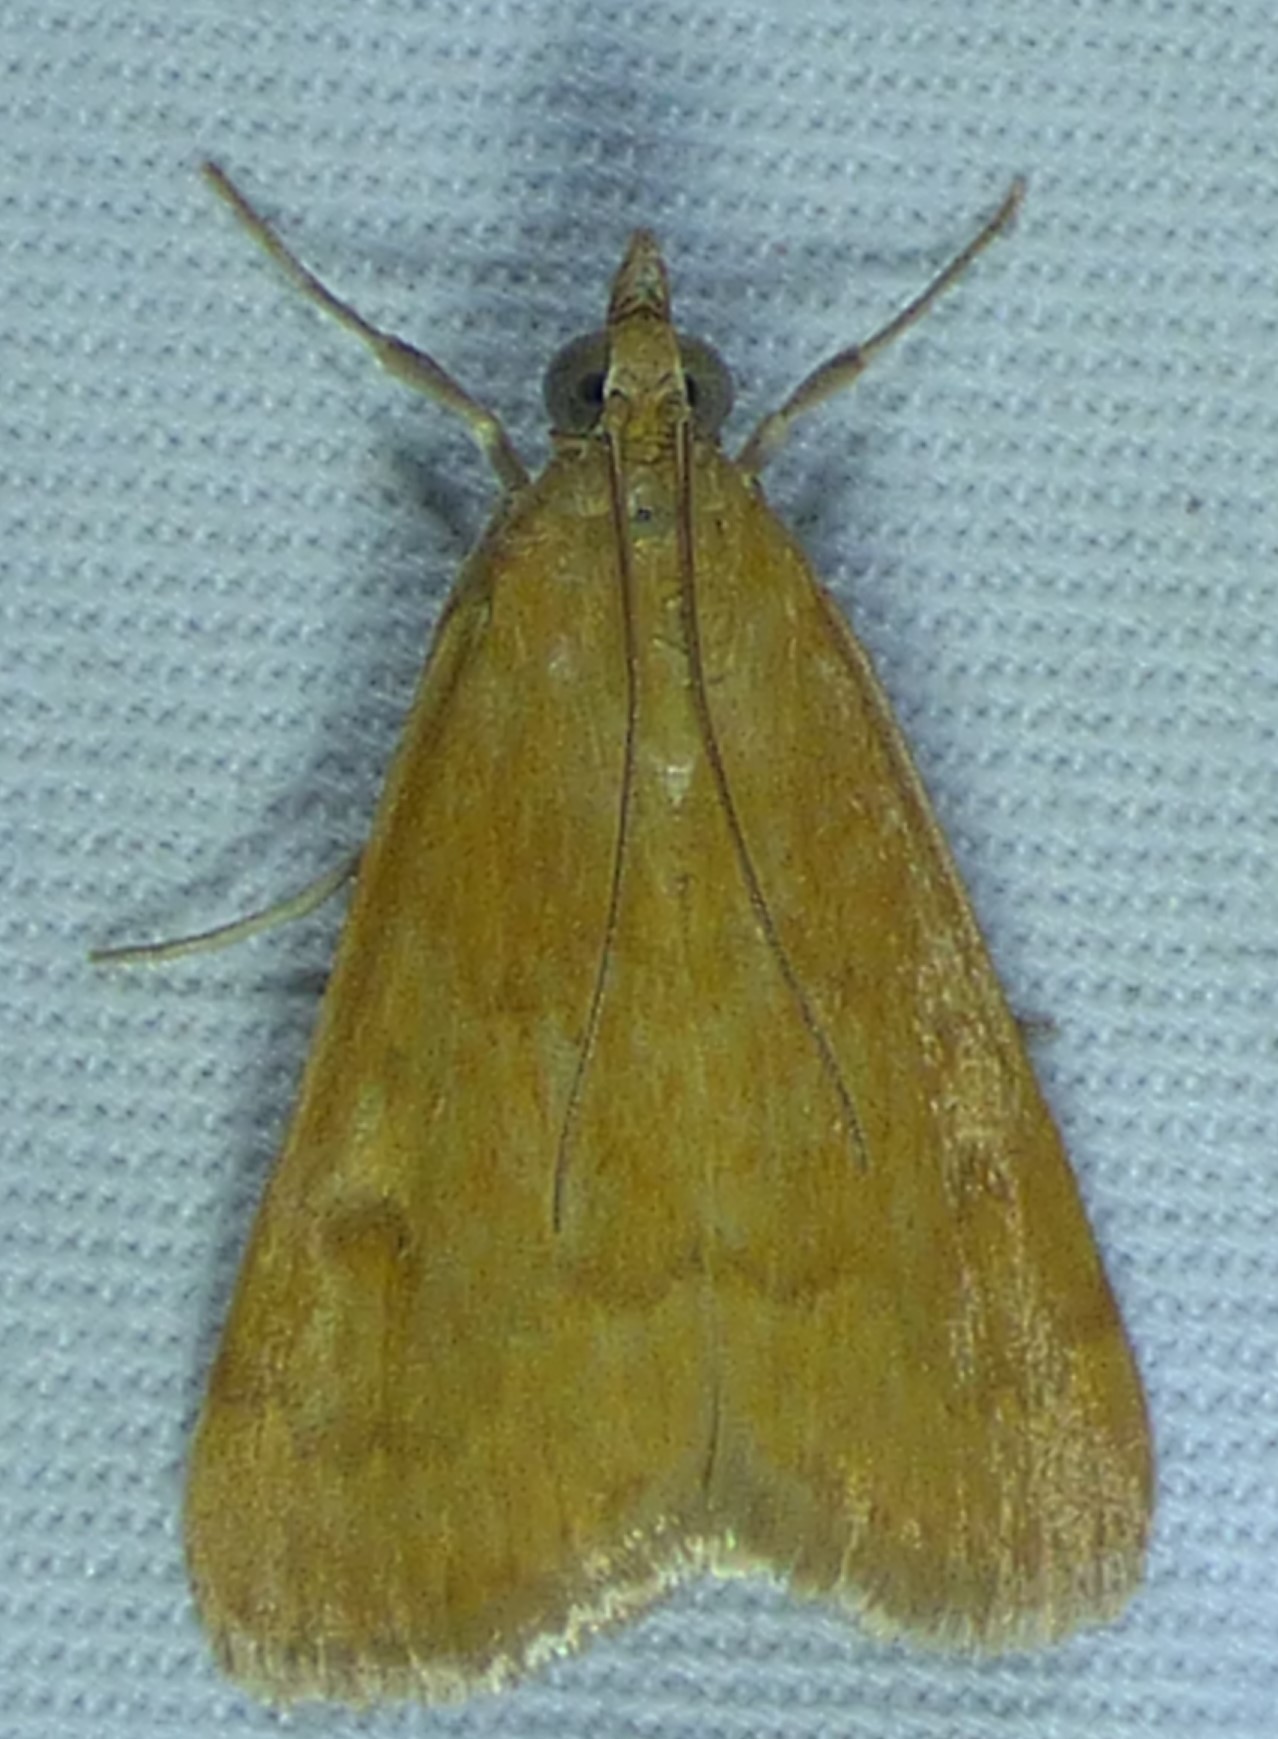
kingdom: Animalia
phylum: Arthropoda
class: Insecta
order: Lepidoptera
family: Crambidae
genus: Achyra
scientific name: Achyra rantalis
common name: Garden webworm
